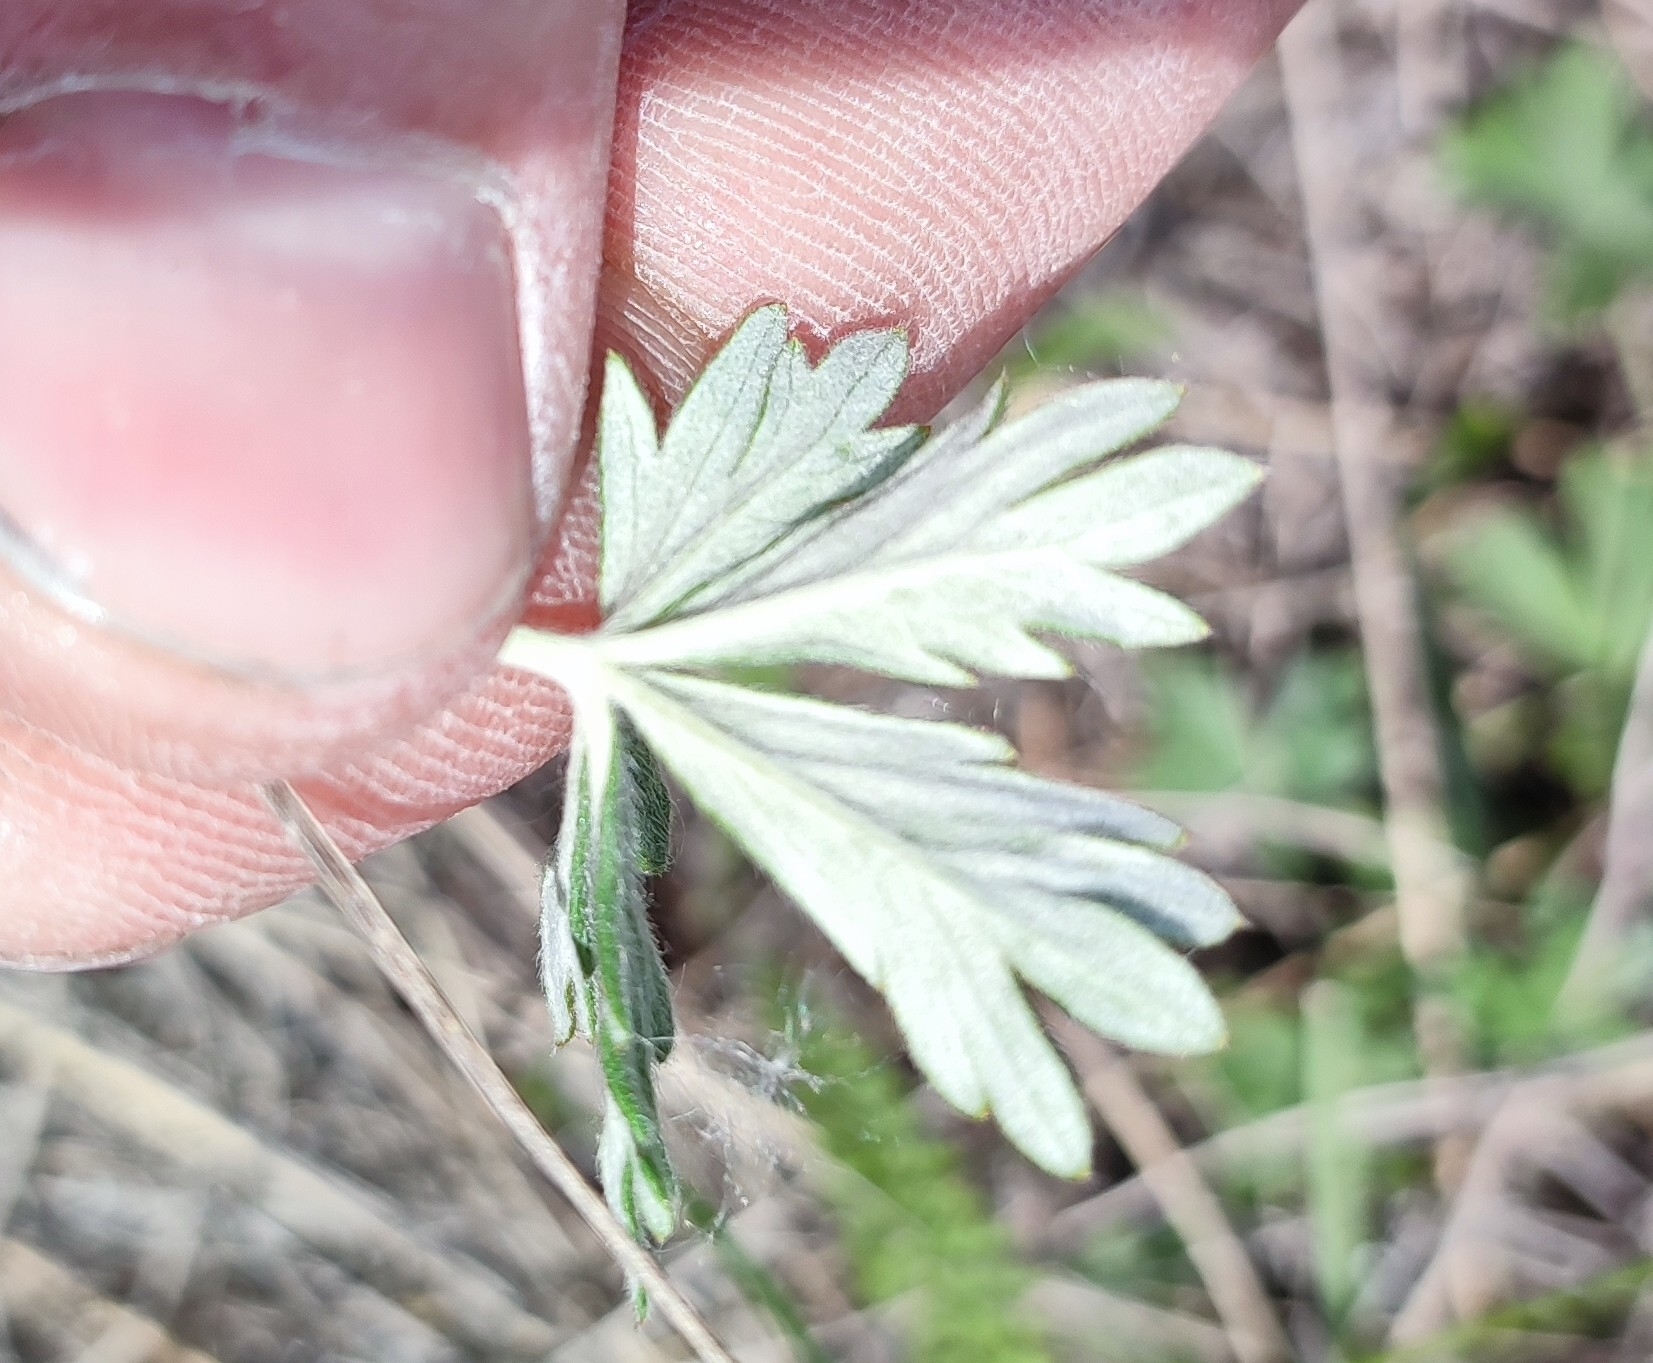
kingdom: Plantae
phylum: Tracheophyta
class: Magnoliopsida
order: Rosales
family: Rosaceae
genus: Potentilla
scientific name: Potentilla argentea
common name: Hoary cinquefoil
